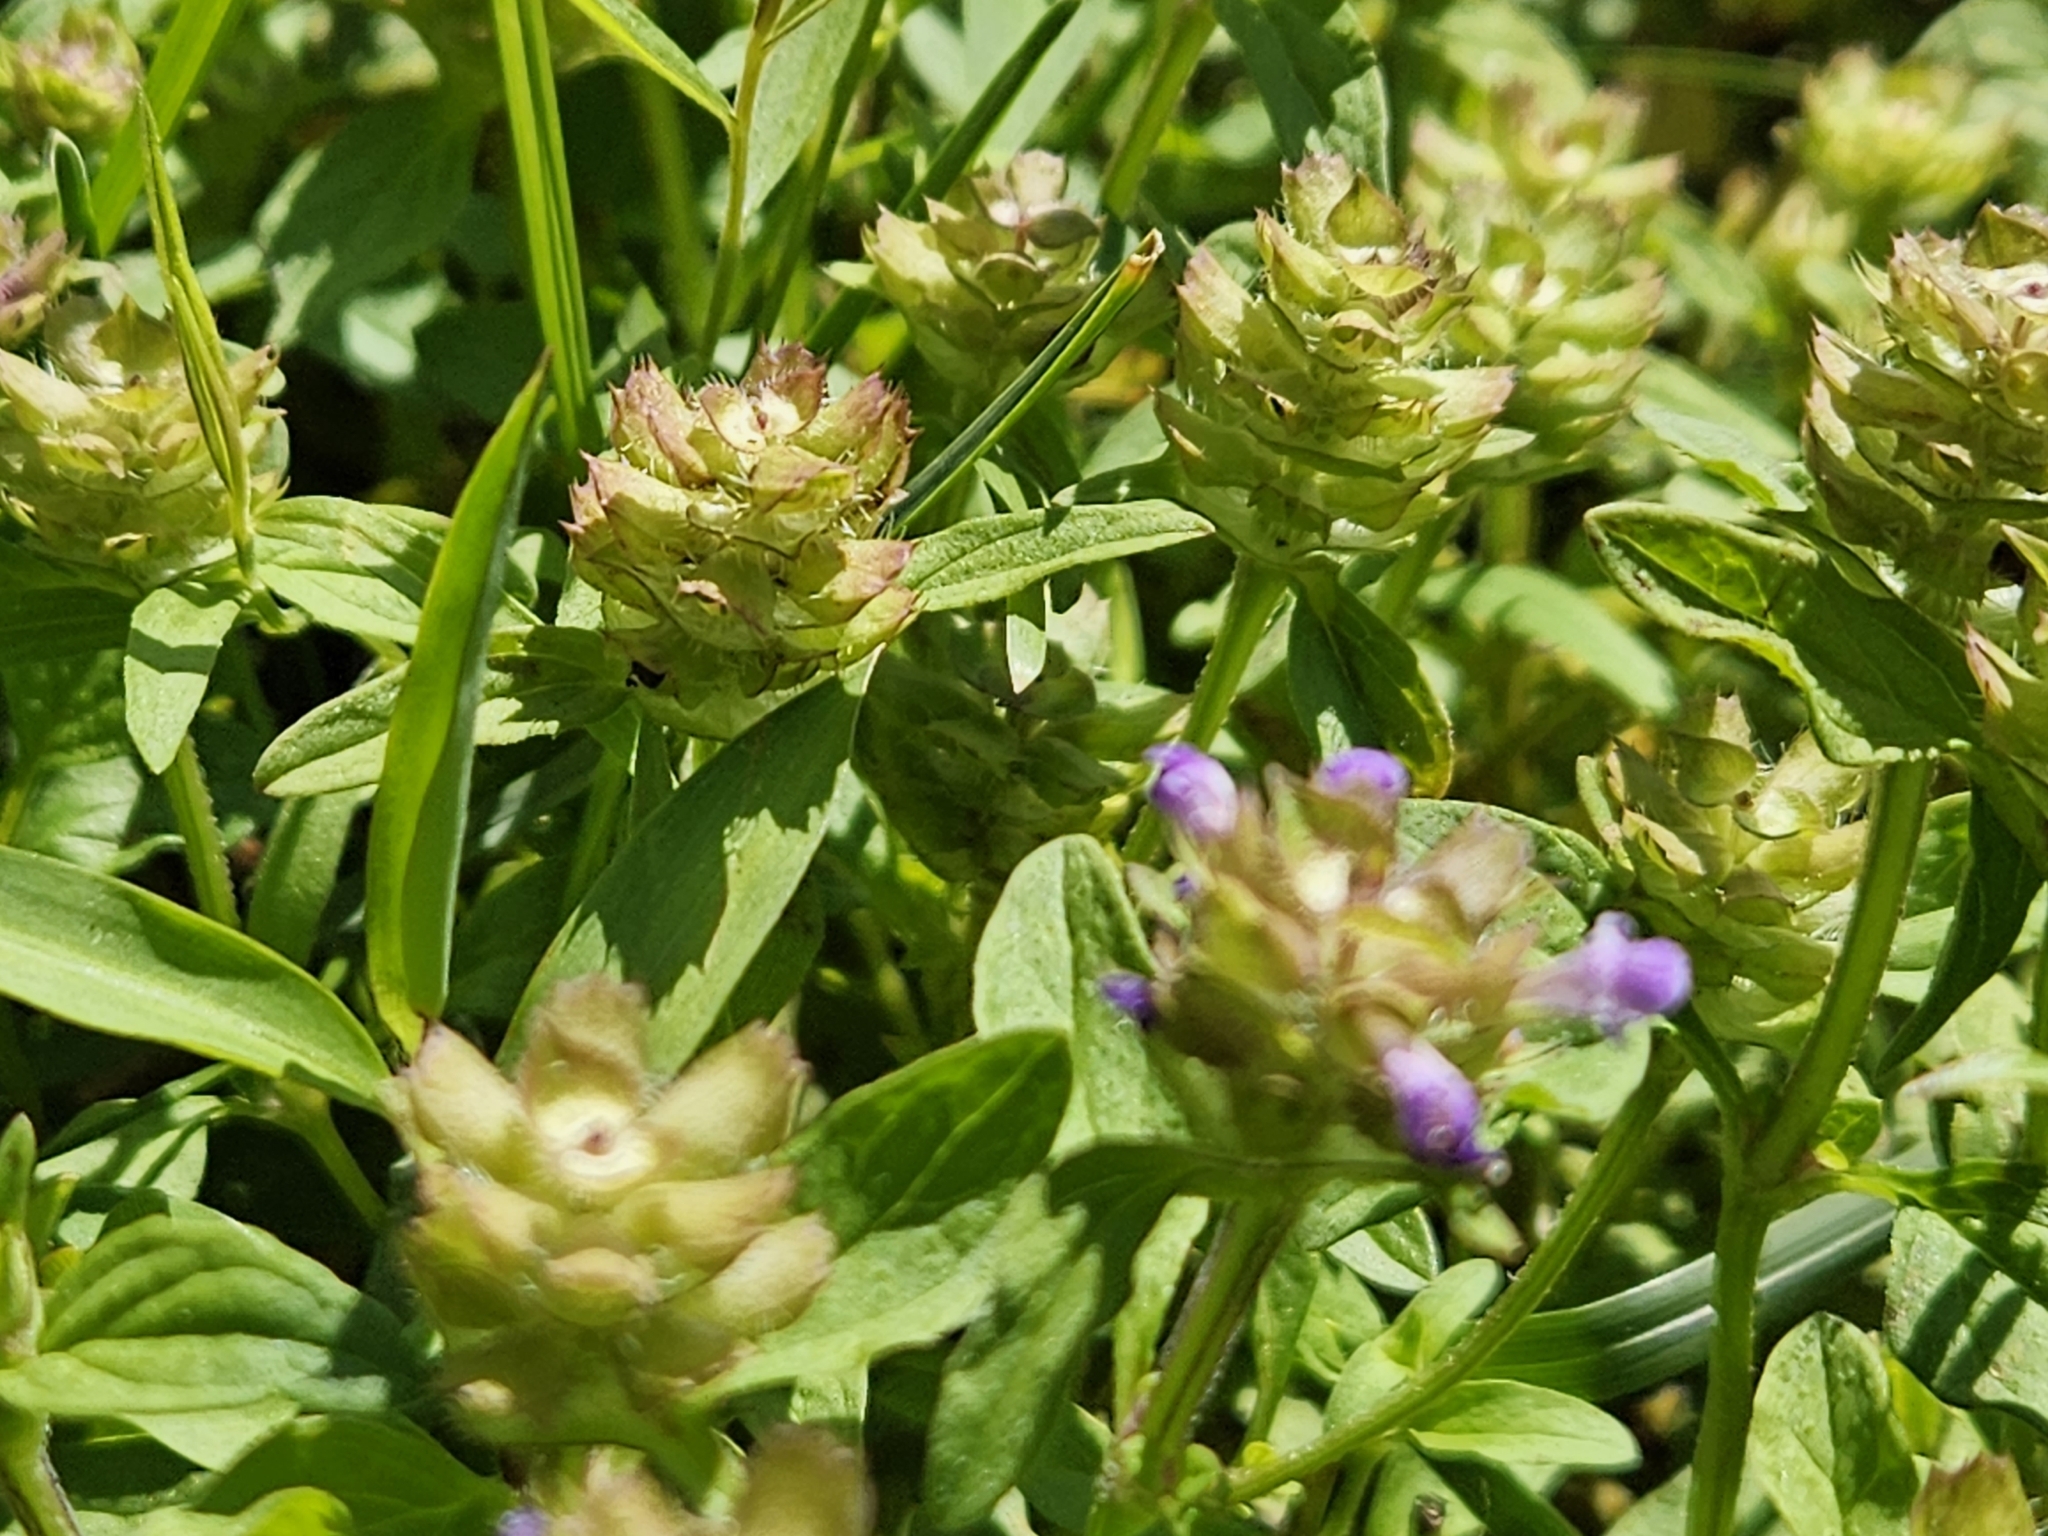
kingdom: Plantae
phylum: Tracheophyta
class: Magnoliopsida
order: Lamiales
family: Lamiaceae
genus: Prunella
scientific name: Prunella vulgaris
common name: Heal-all
